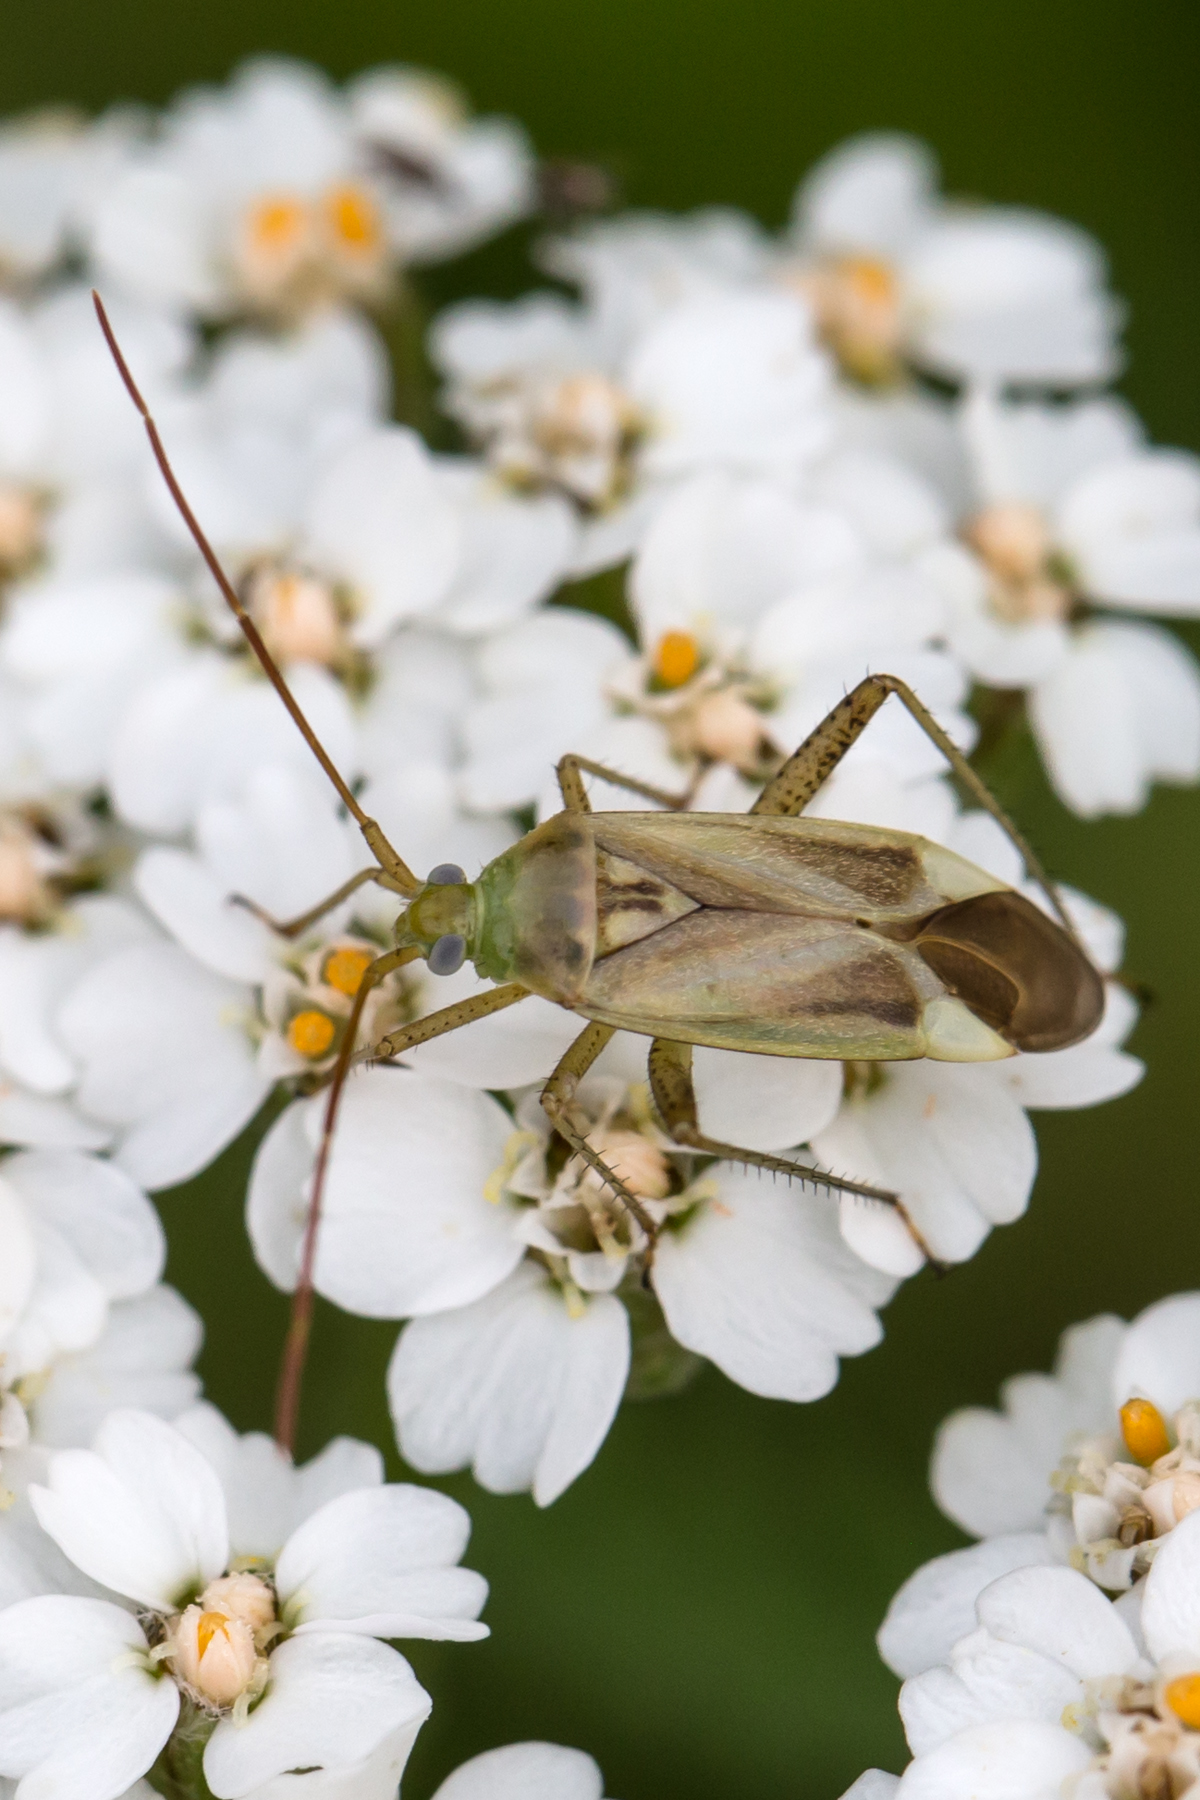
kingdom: Animalia
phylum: Arthropoda
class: Insecta
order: Hemiptera
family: Miridae
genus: Adelphocoris
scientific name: Adelphocoris lineolatus
